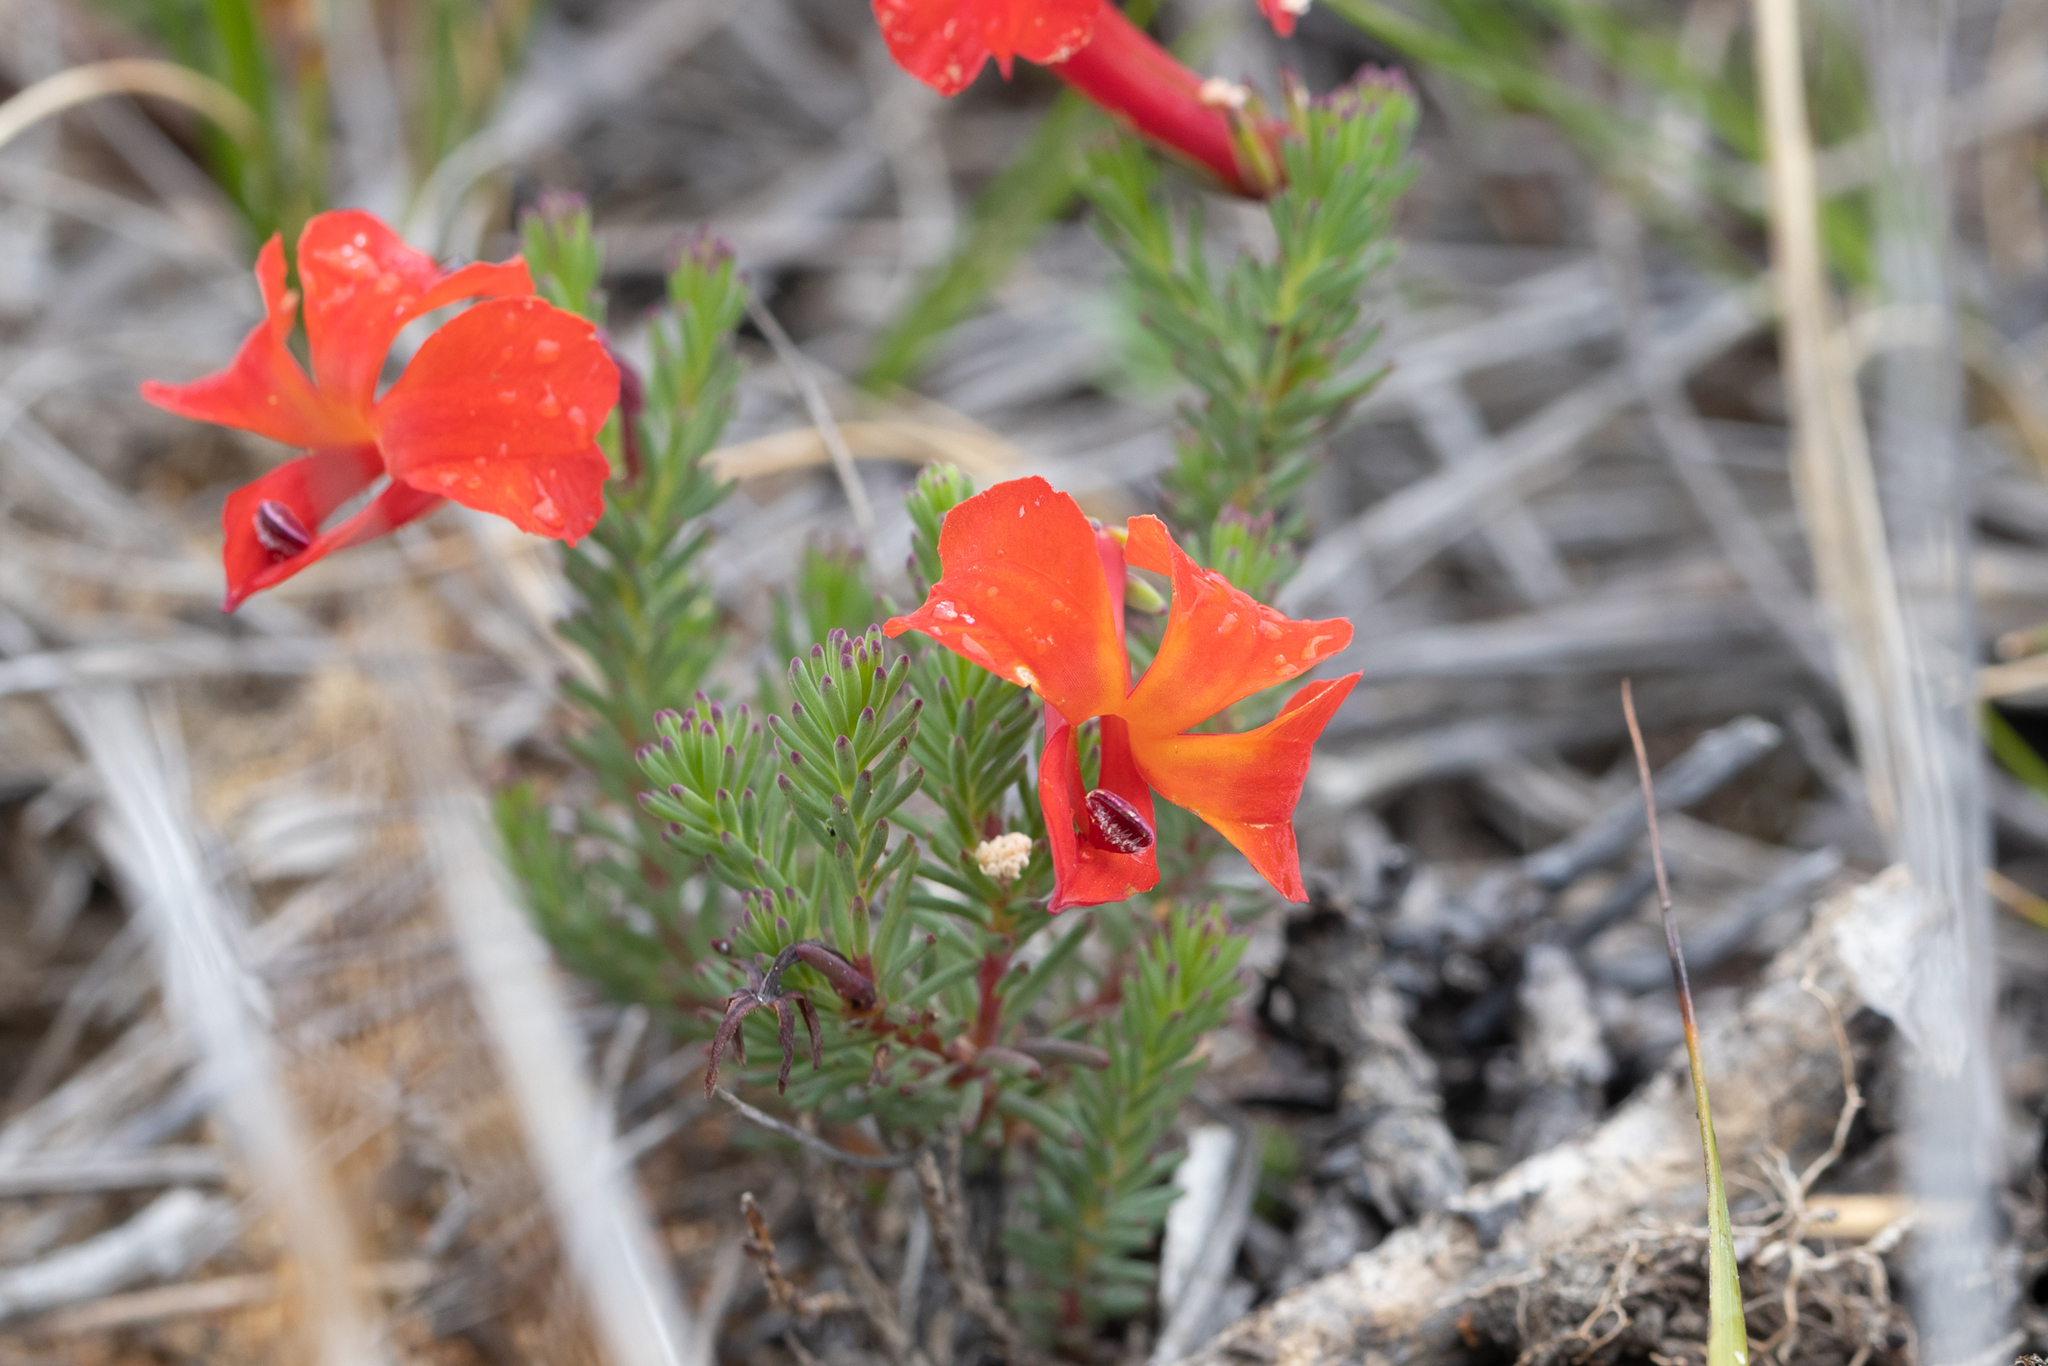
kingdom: Plantae
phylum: Tracheophyta
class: Magnoliopsida
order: Asterales
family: Goodeniaceae
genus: Lechenaultia
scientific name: Lechenaultia formosa
